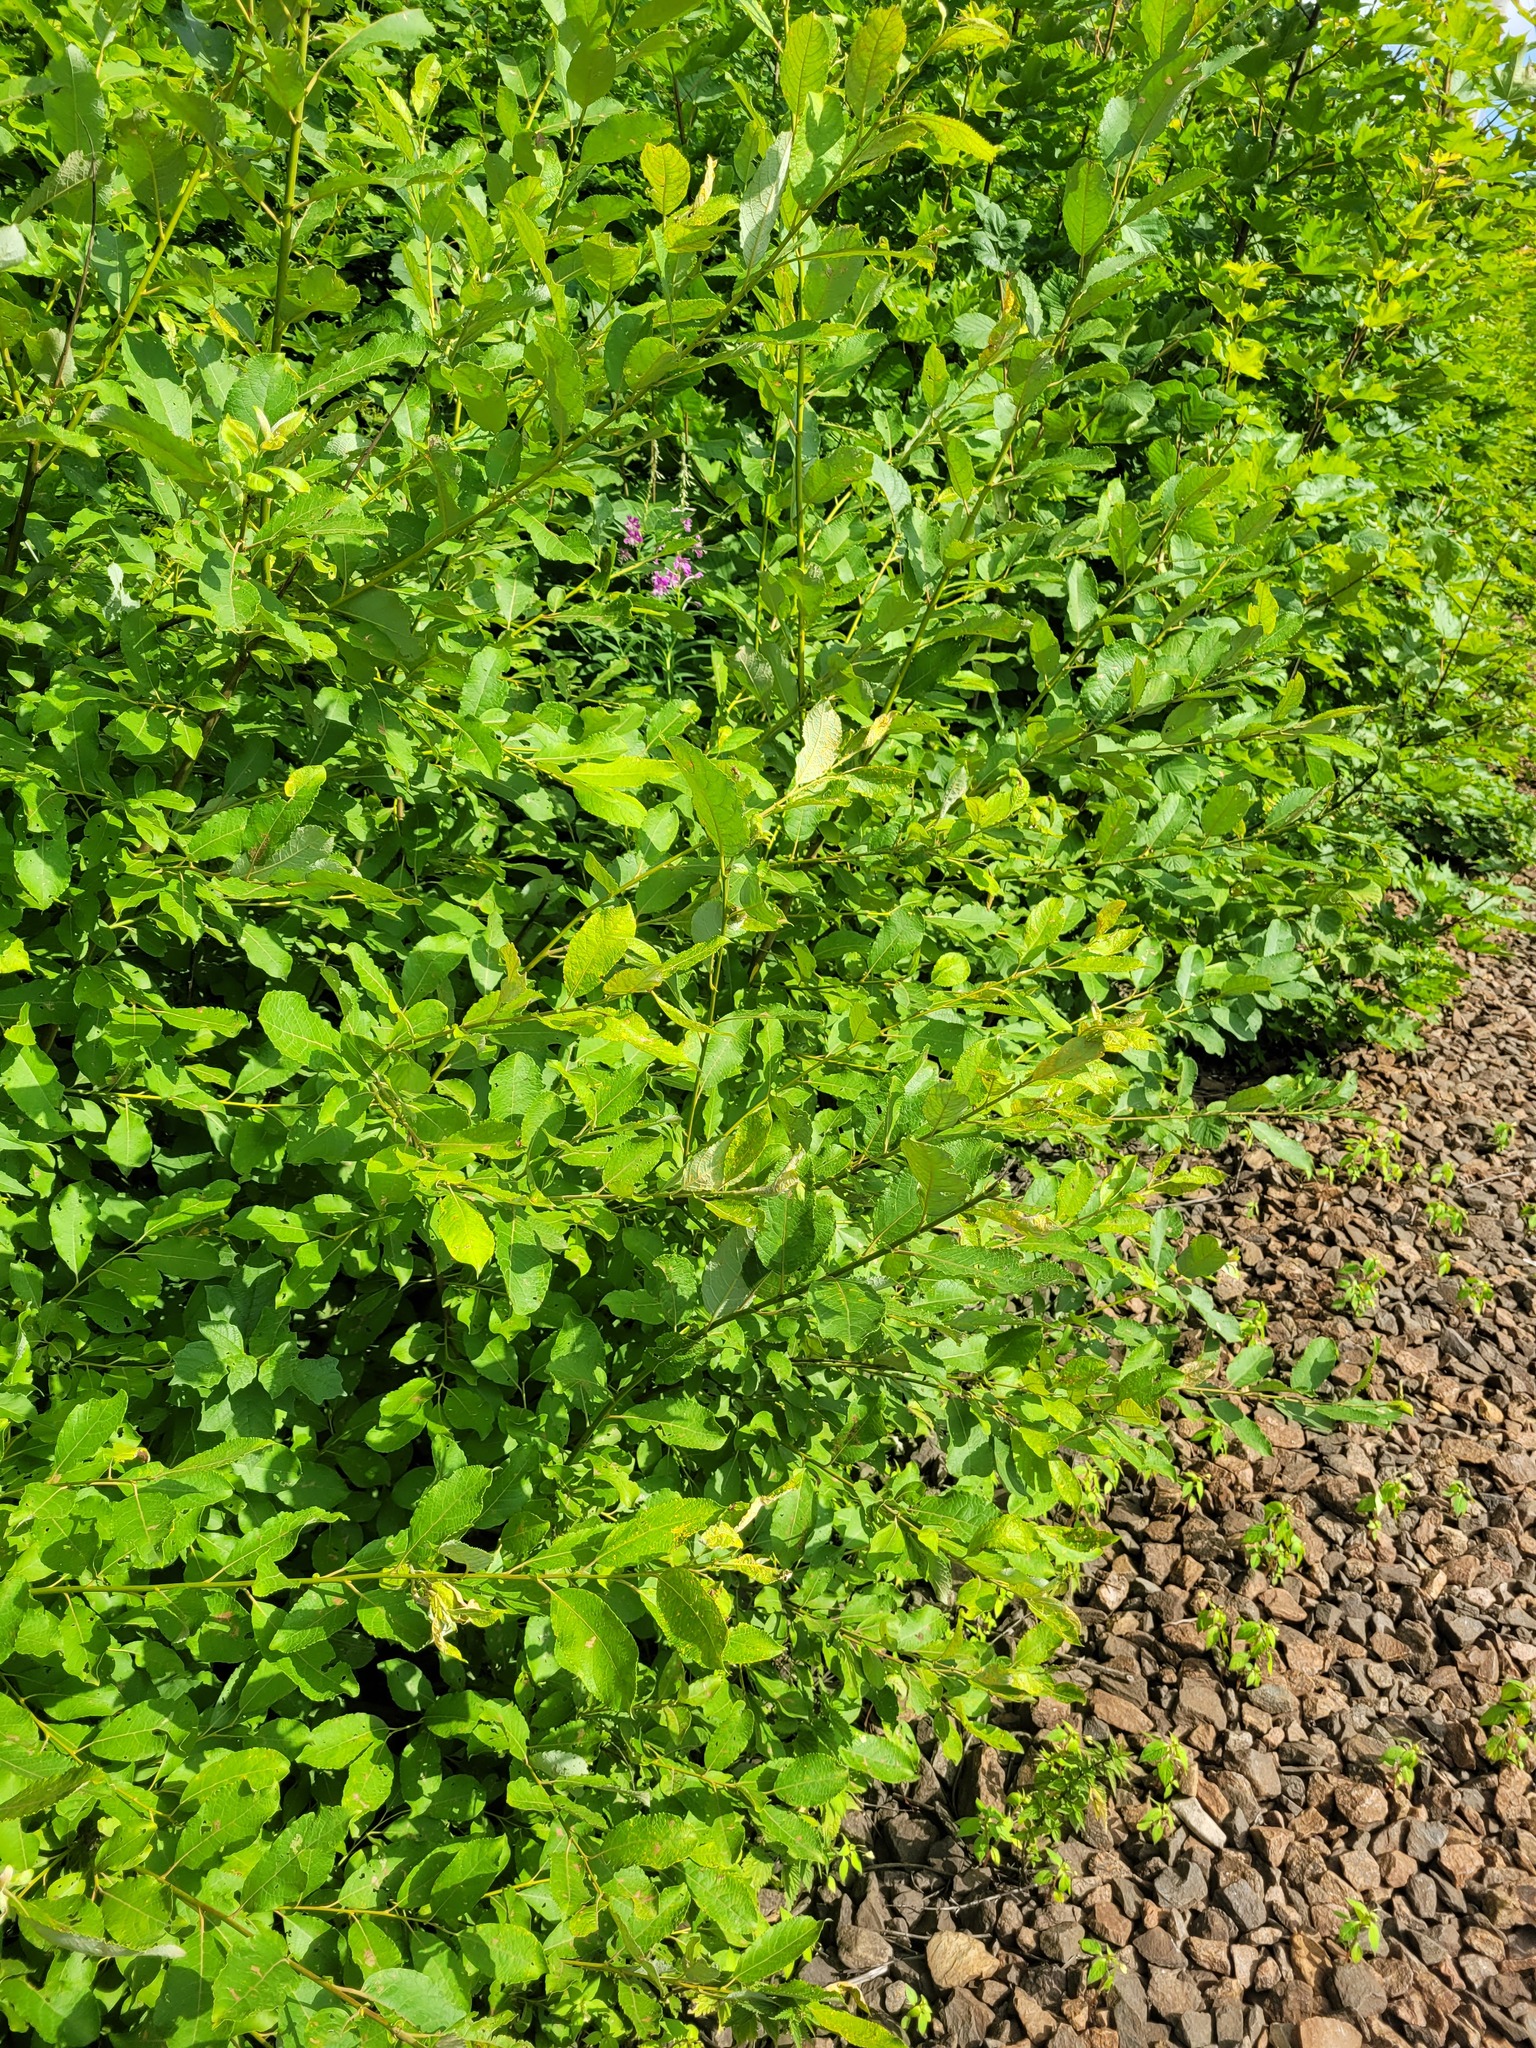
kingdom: Plantae
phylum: Tracheophyta
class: Magnoliopsida
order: Malpighiales
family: Salicaceae
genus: Salix
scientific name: Salix caprea
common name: Goat willow
